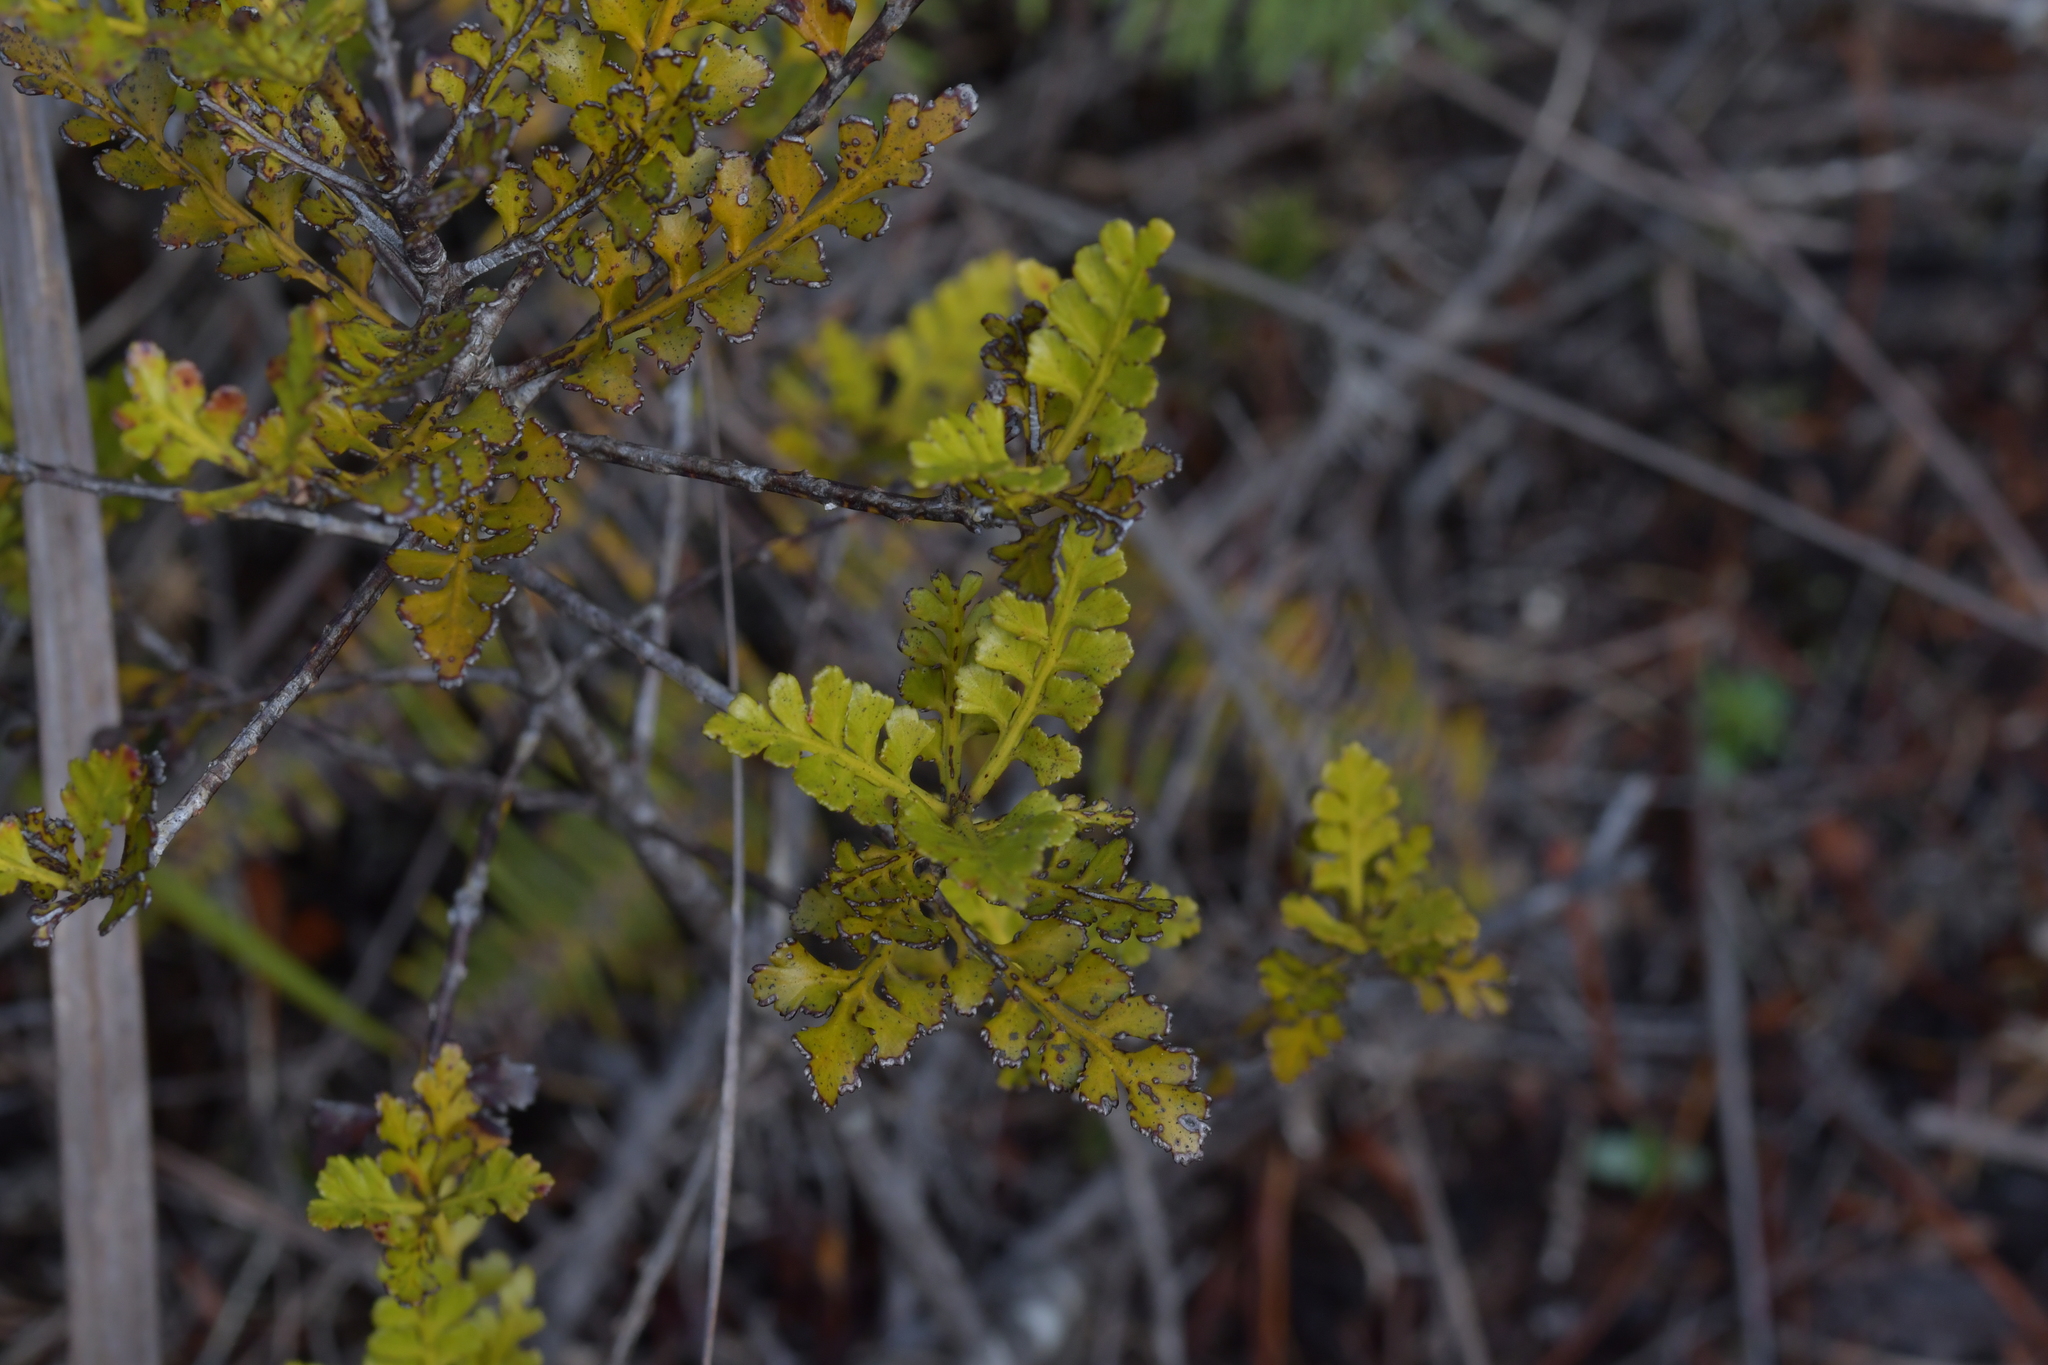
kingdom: Plantae
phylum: Tracheophyta
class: Pinopsida
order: Pinales
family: Phyllocladaceae
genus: Phyllocladus
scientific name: Phyllocladus trichomanoides
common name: Celery pine
